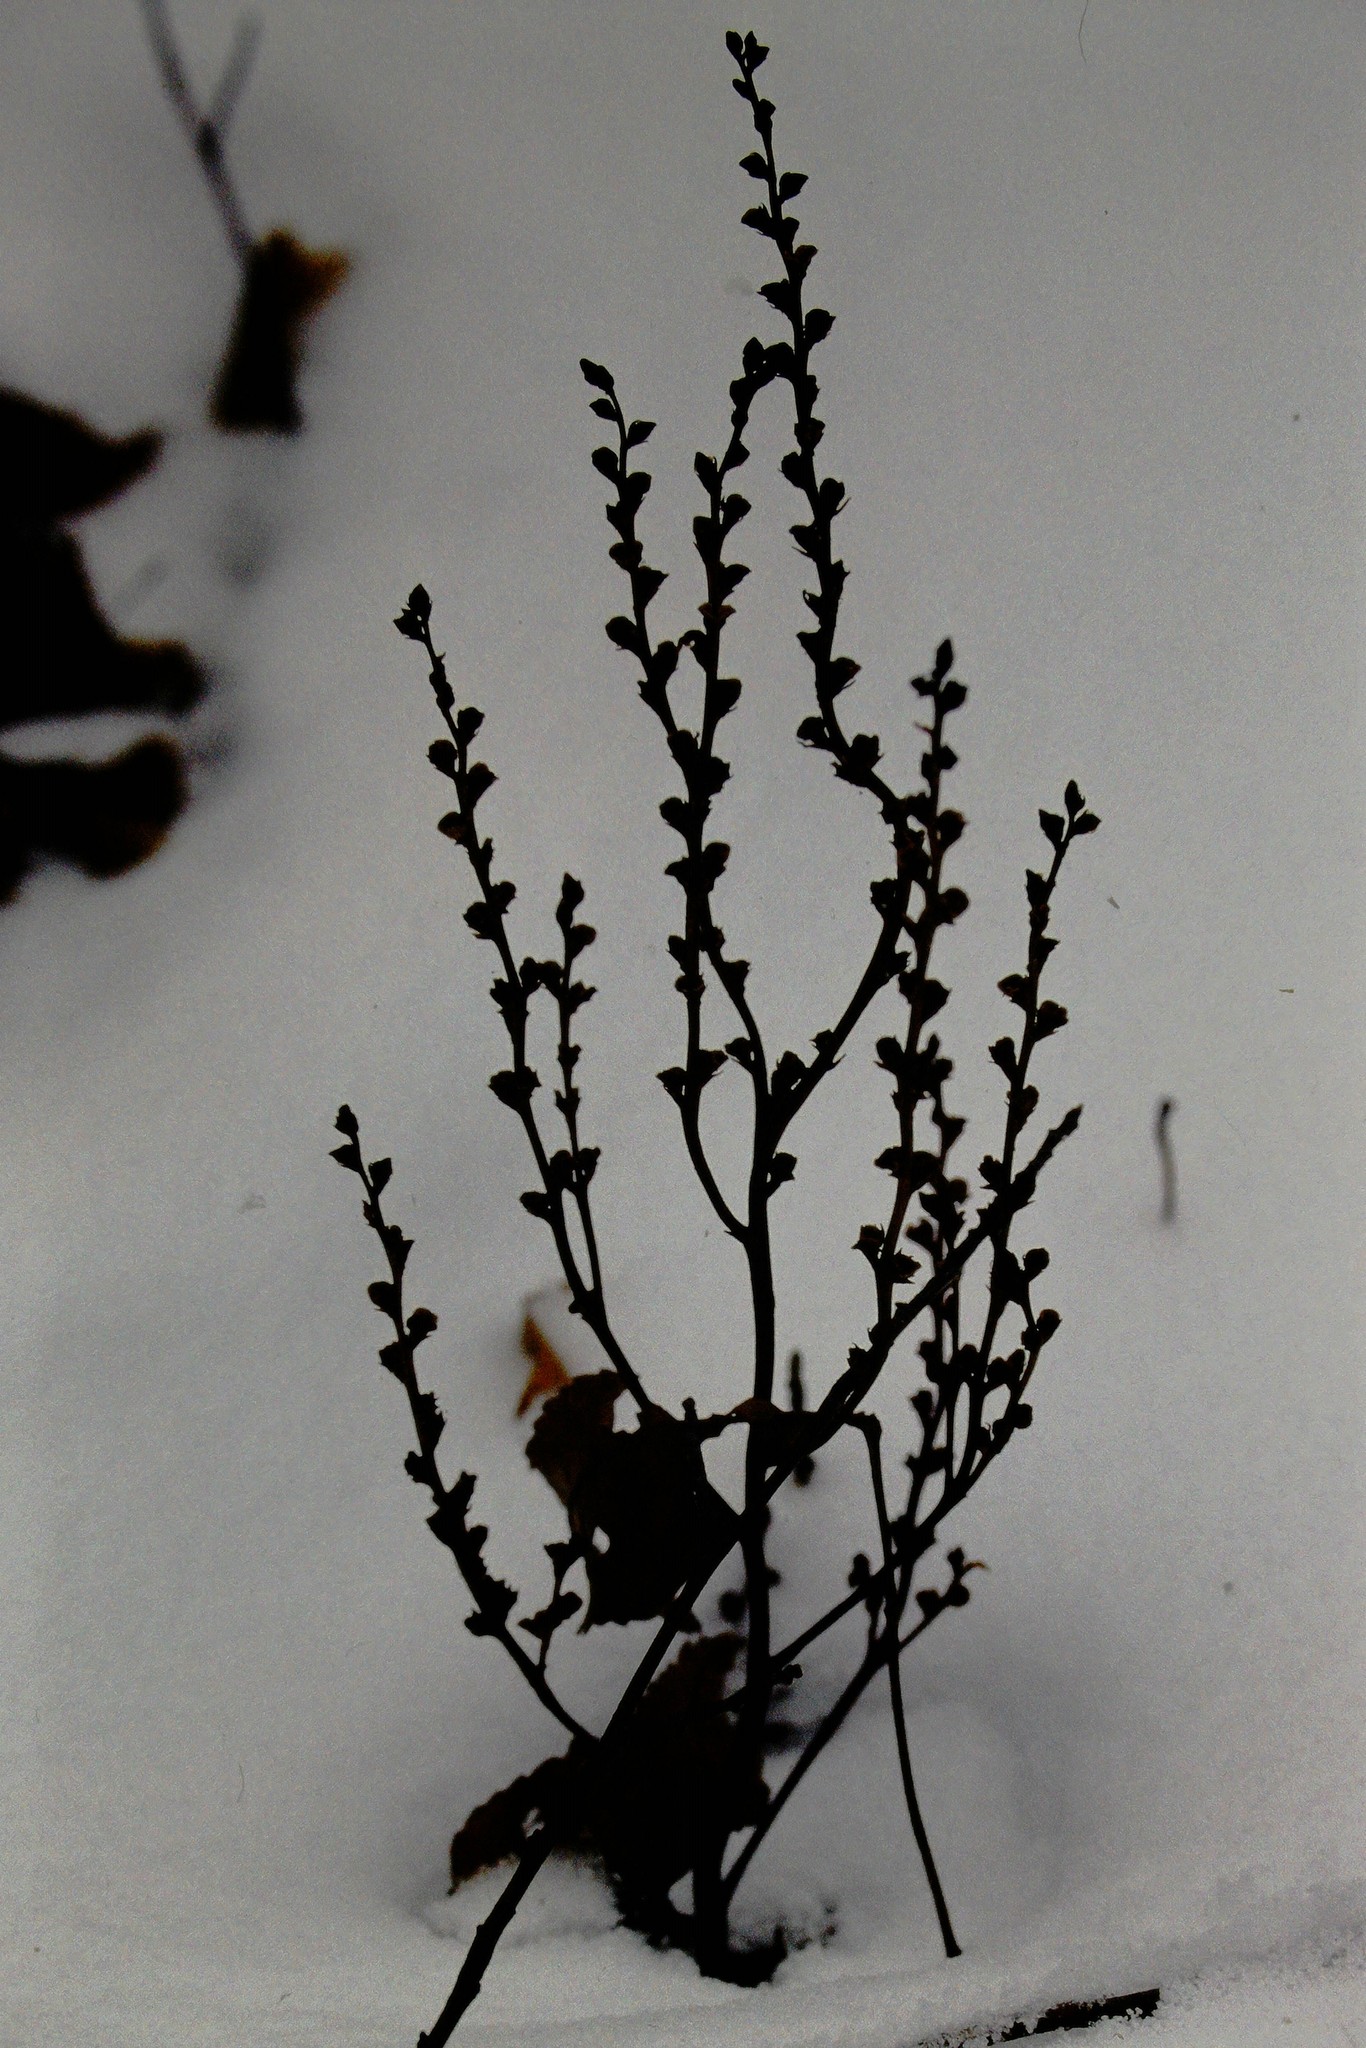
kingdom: Plantae
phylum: Tracheophyta
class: Magnoliopsida
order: Lamiales
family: Orobanchaceae
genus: Epifagus
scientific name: Epifagus virginiana
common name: Beechdrops
